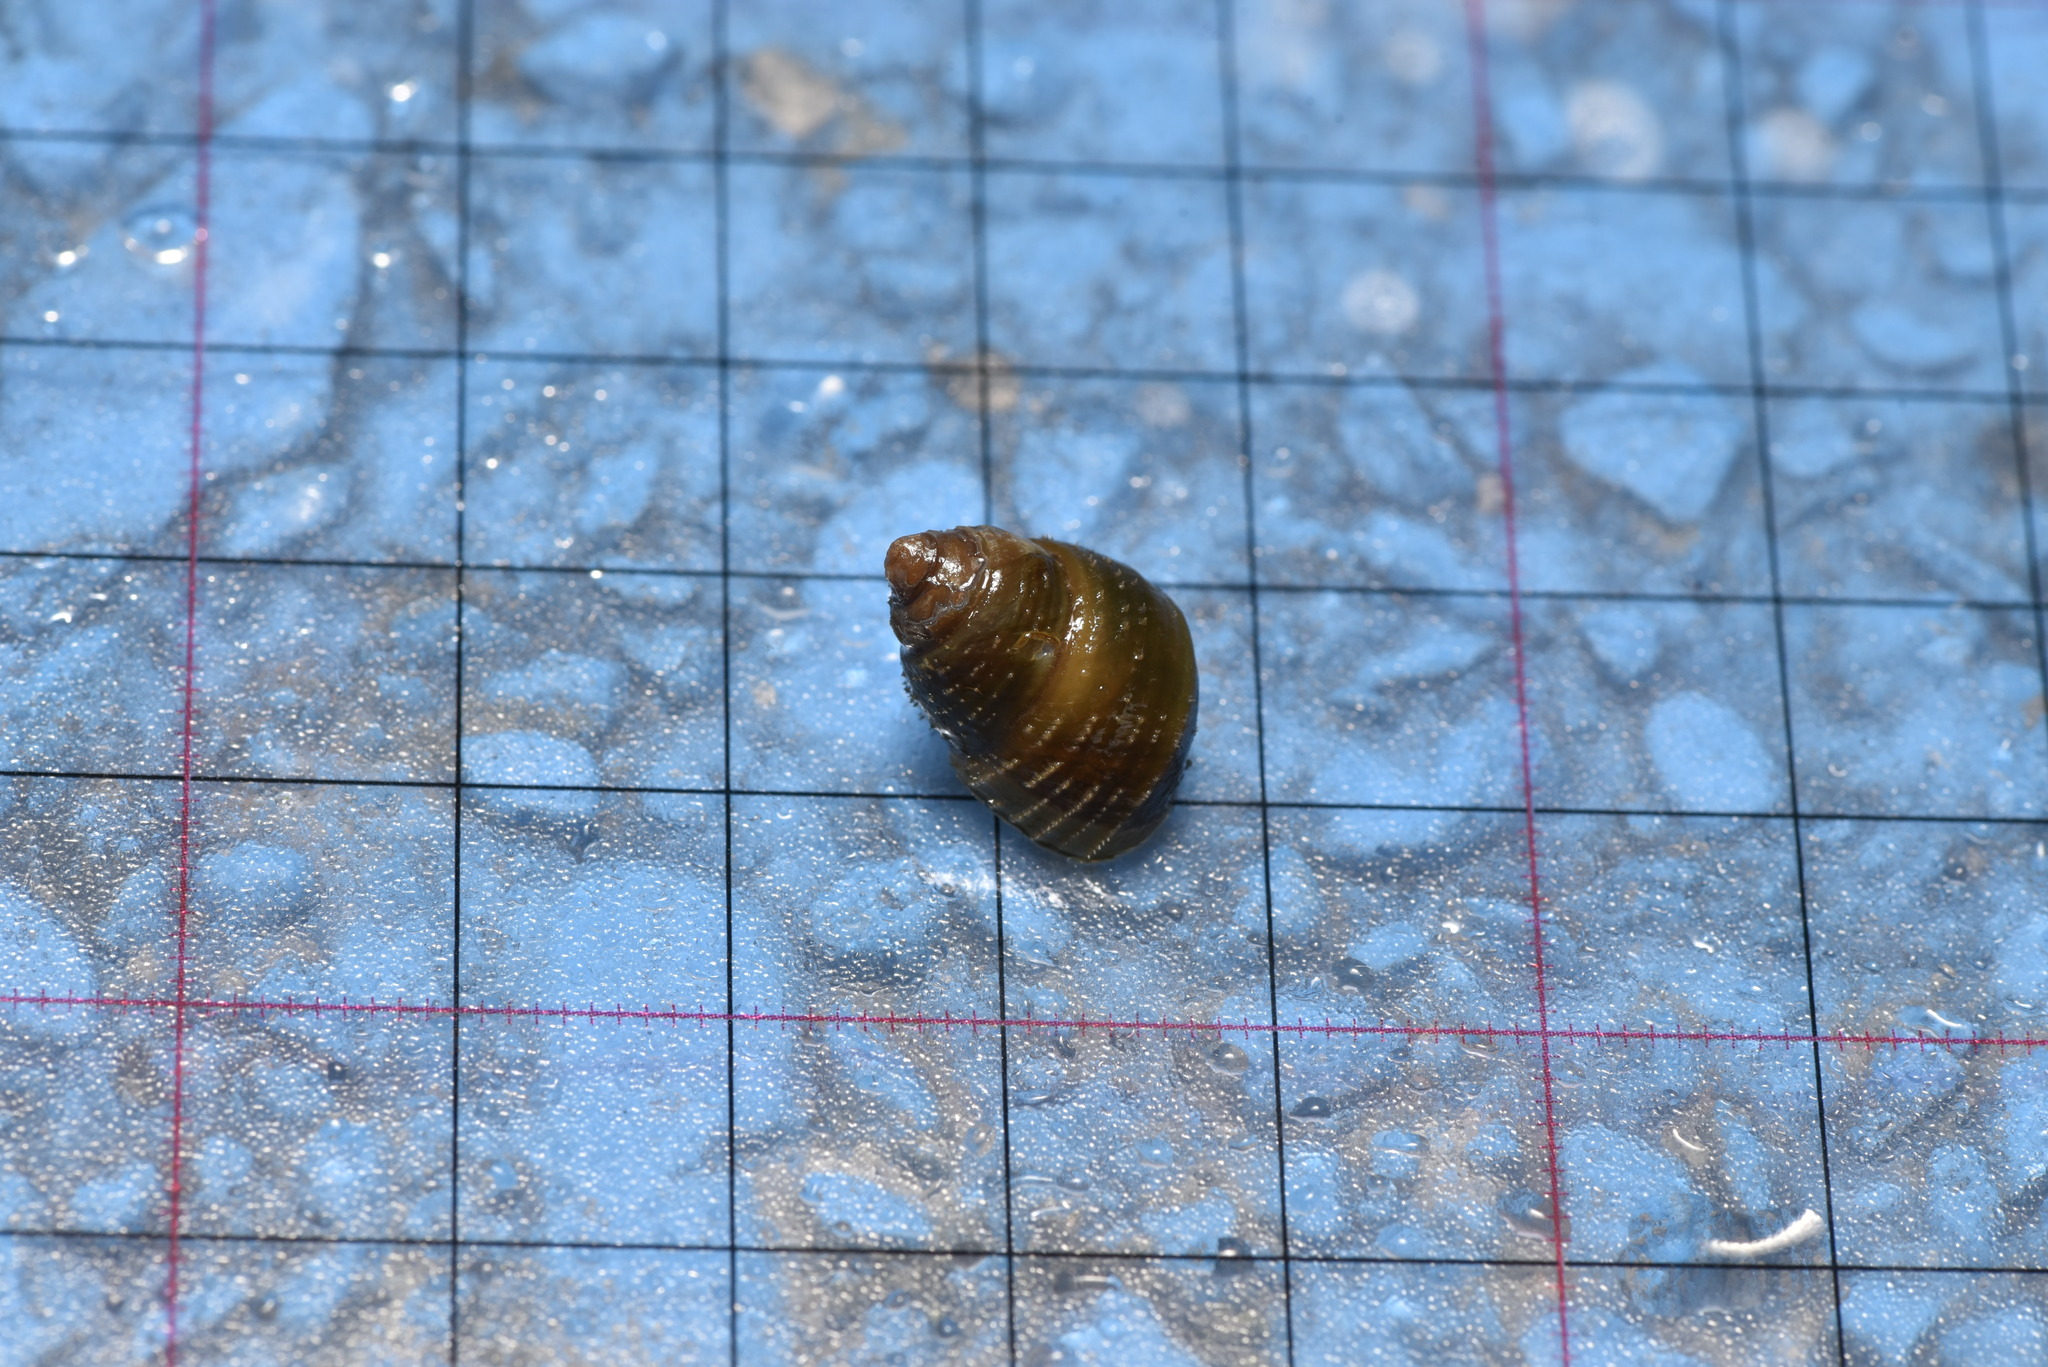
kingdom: Animalia
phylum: Mollusca
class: Gastropoda
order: Architaenioglossa
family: Viviparidae
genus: Sinotaia
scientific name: Sinotaia quadrata
